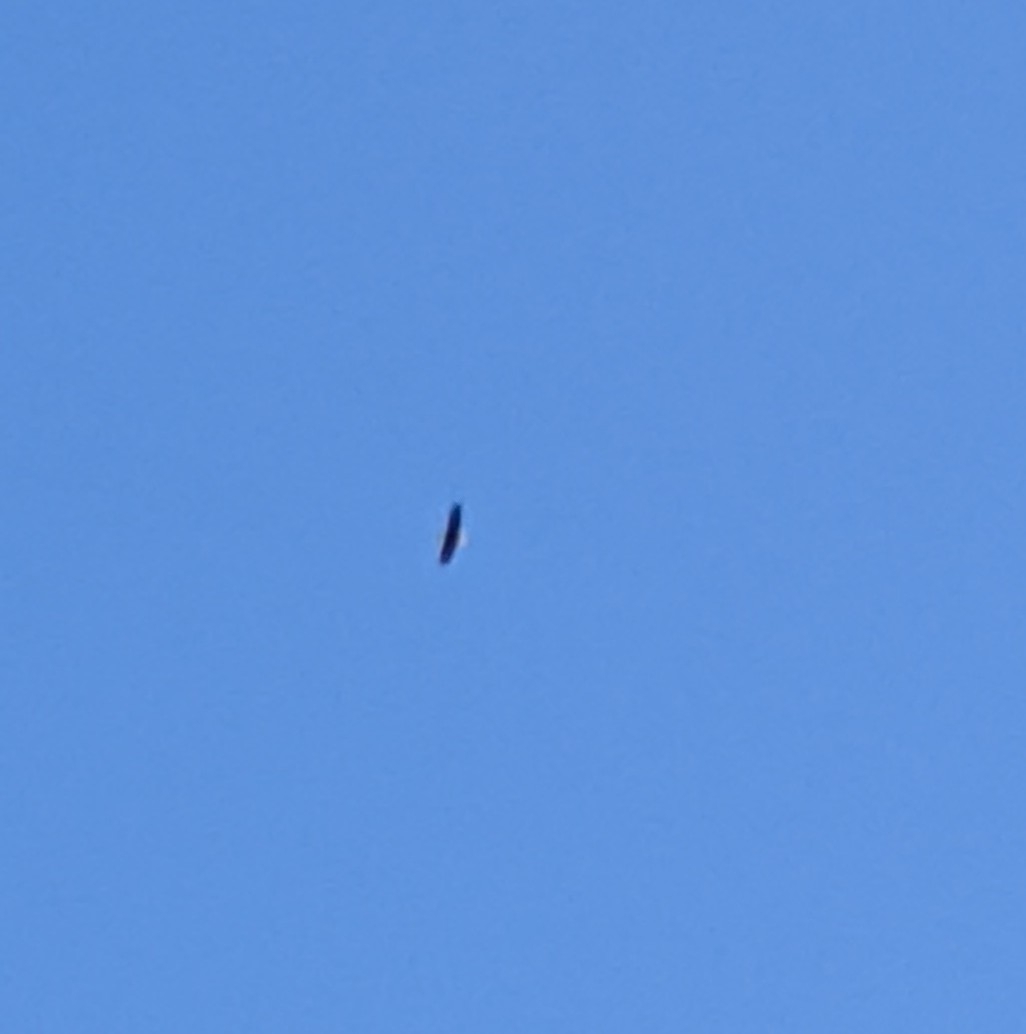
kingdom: Animalia
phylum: Chordata
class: Aves
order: Accipitriformes
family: Accipitridae
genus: Haliaeetus
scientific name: Haliaeetus leucocephalus
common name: Bald eagle
